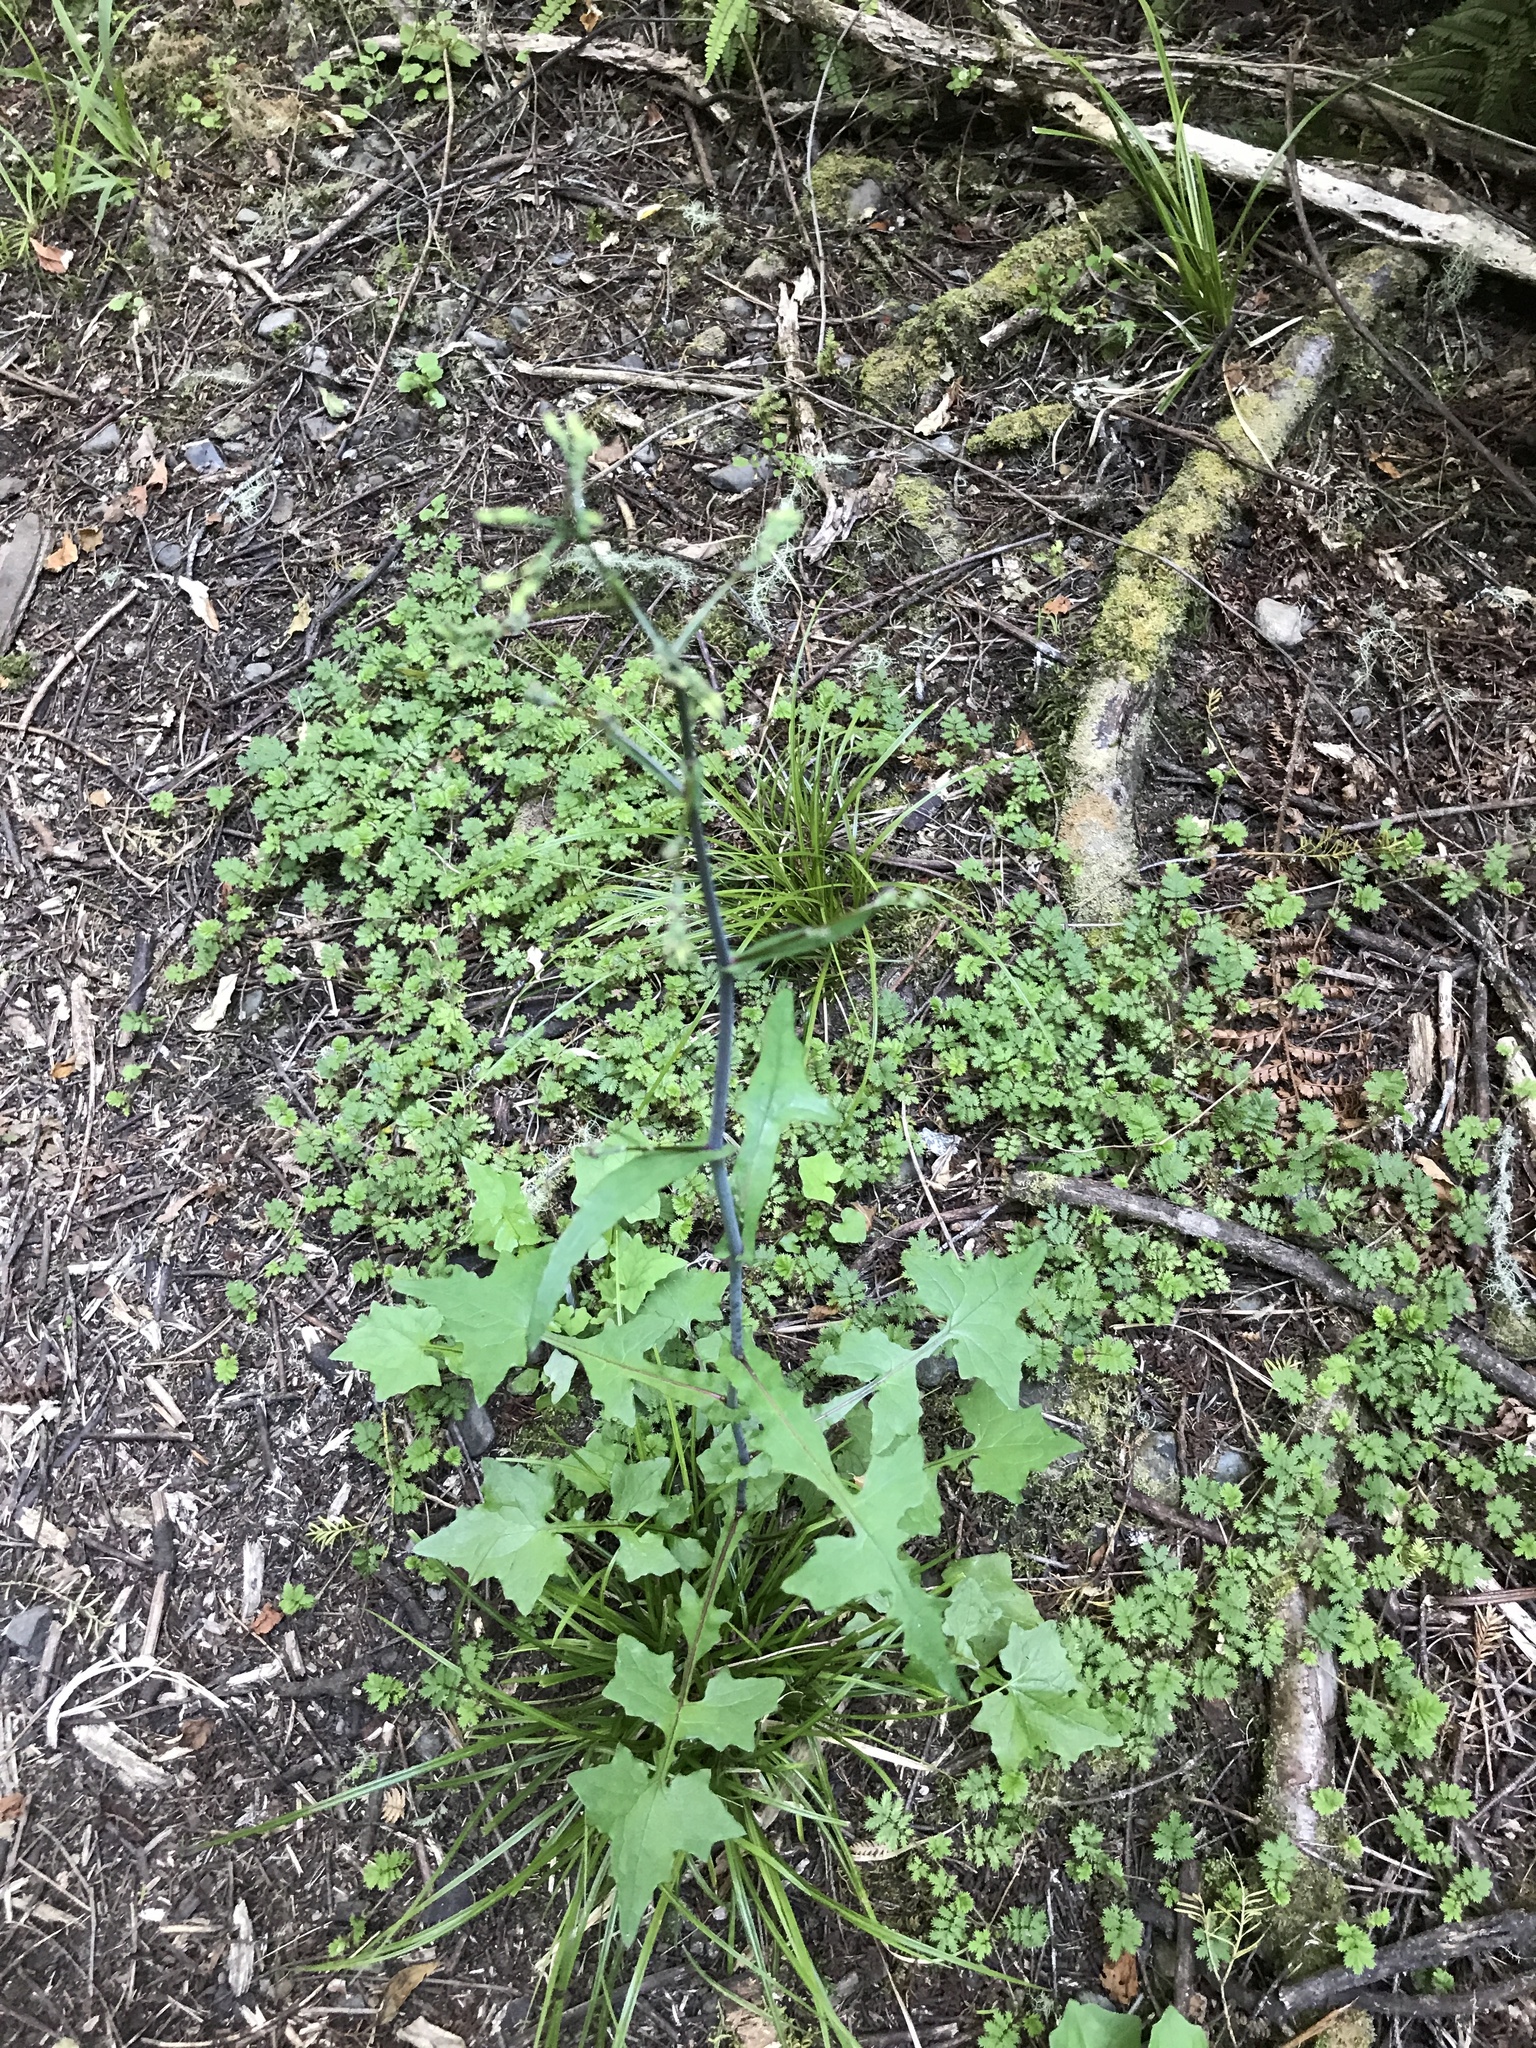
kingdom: Plantae
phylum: Tracheophyta
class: Magnoliopsida
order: Asterales
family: Asteraceae
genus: Mycelis
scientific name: Mycelis muralis
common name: Wall lettuce
